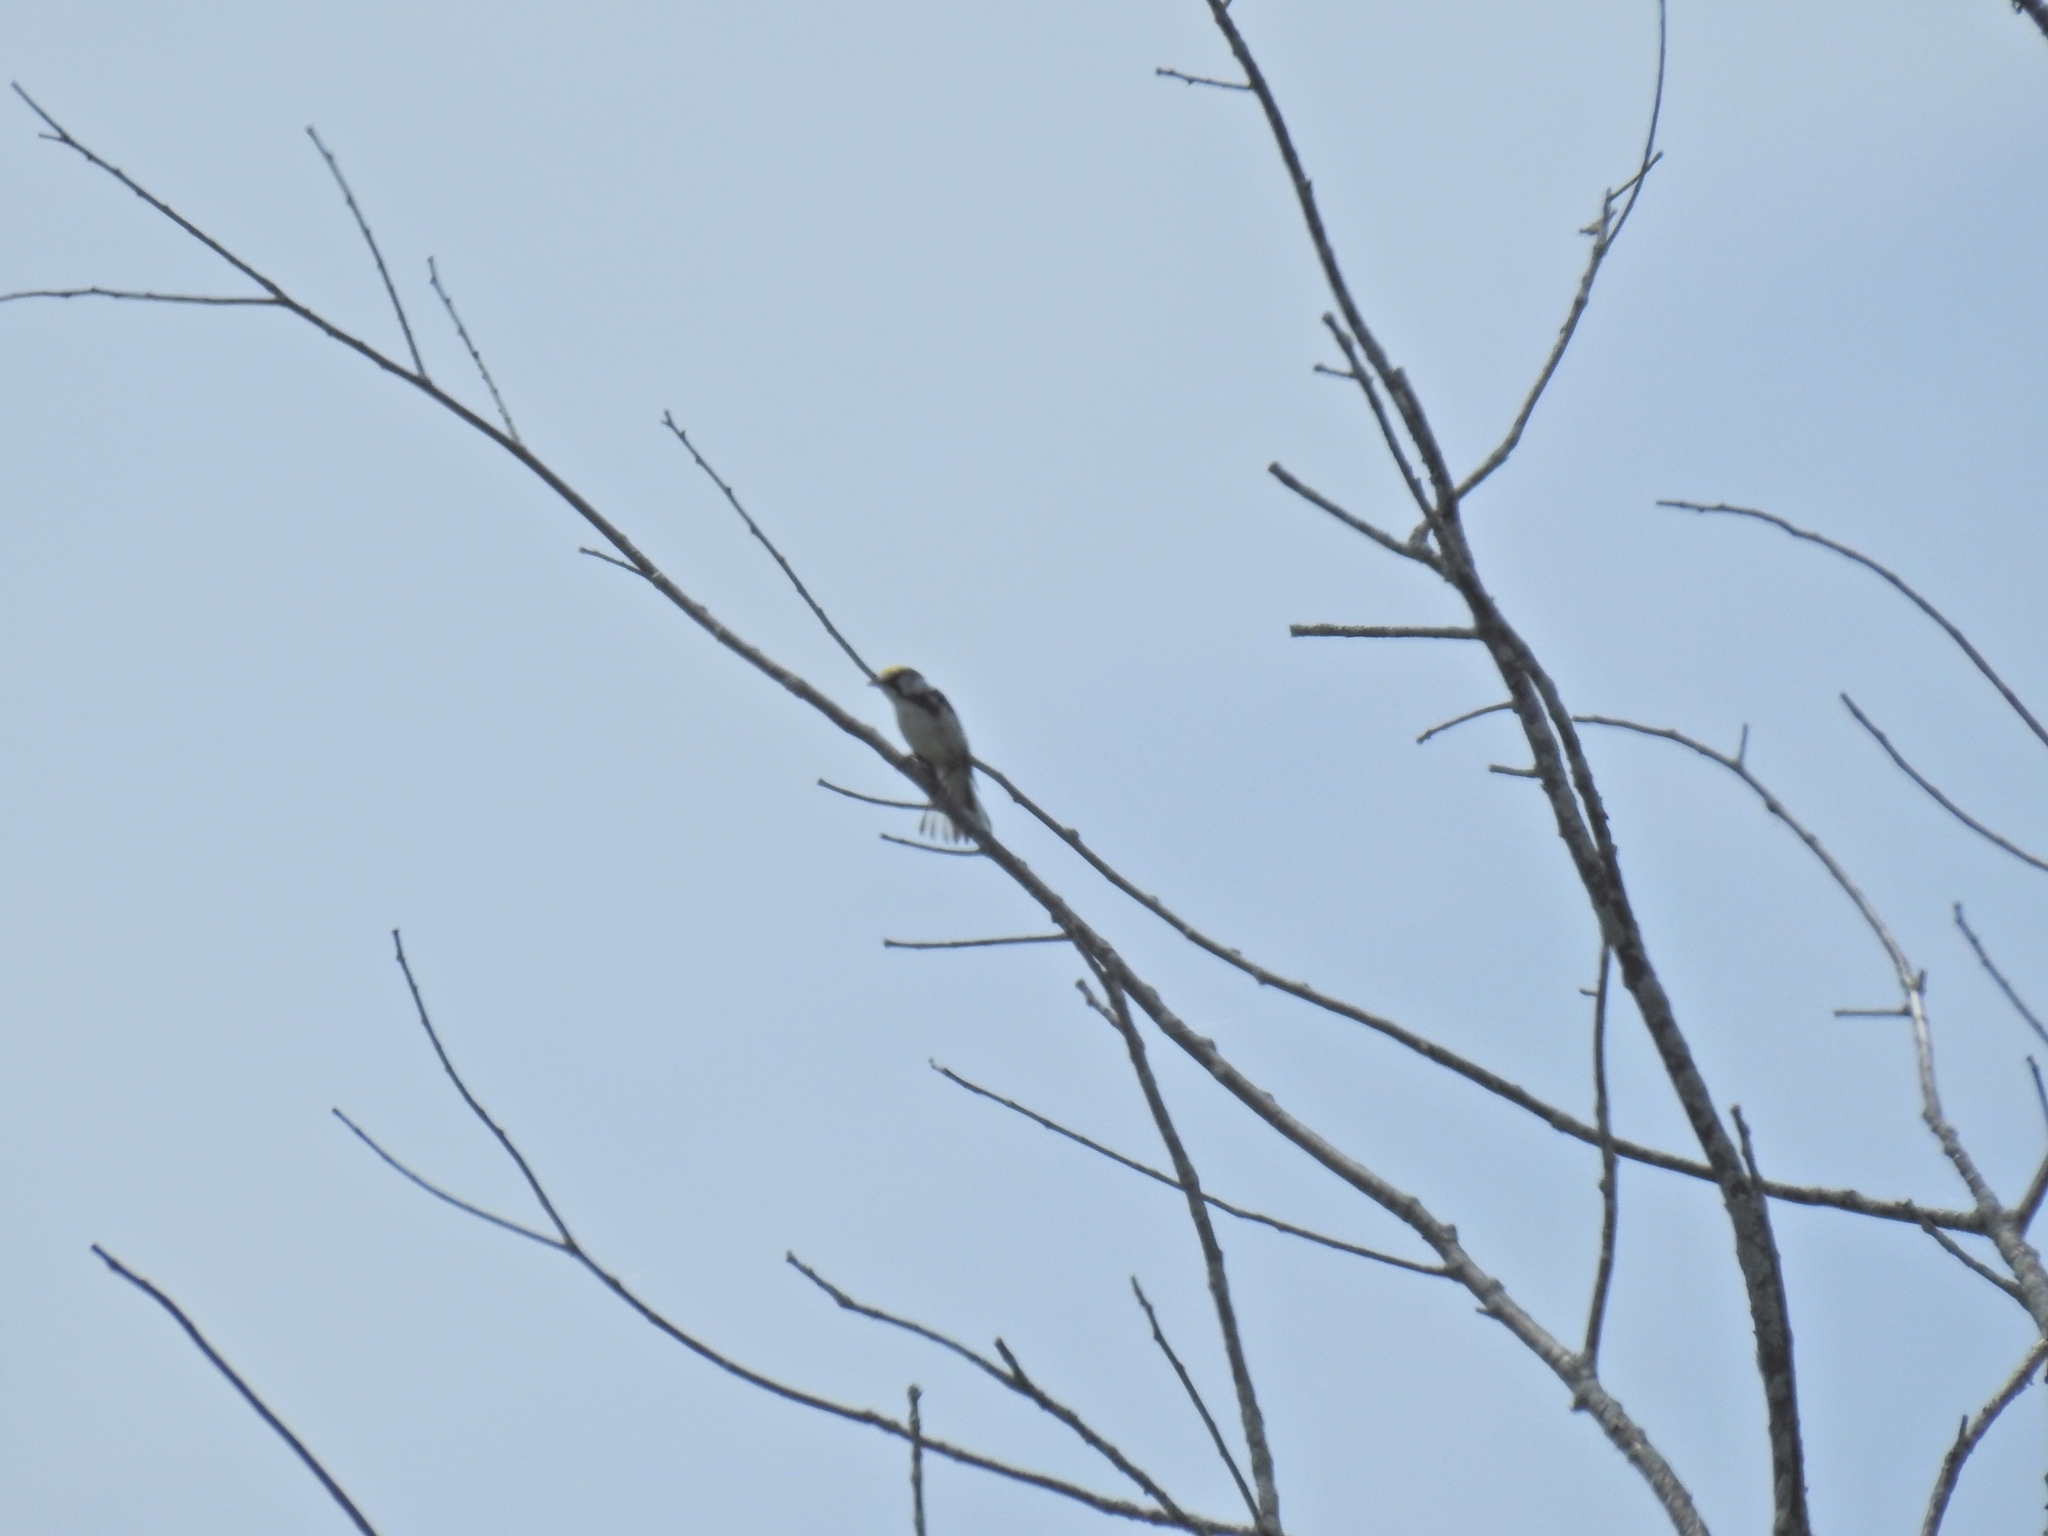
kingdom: Animalia
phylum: Chordata
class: Aves
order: Passeriformes
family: Parulidae
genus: Setophaga
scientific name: Setophaga pensylvanica
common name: Chestnut-sided warbler
